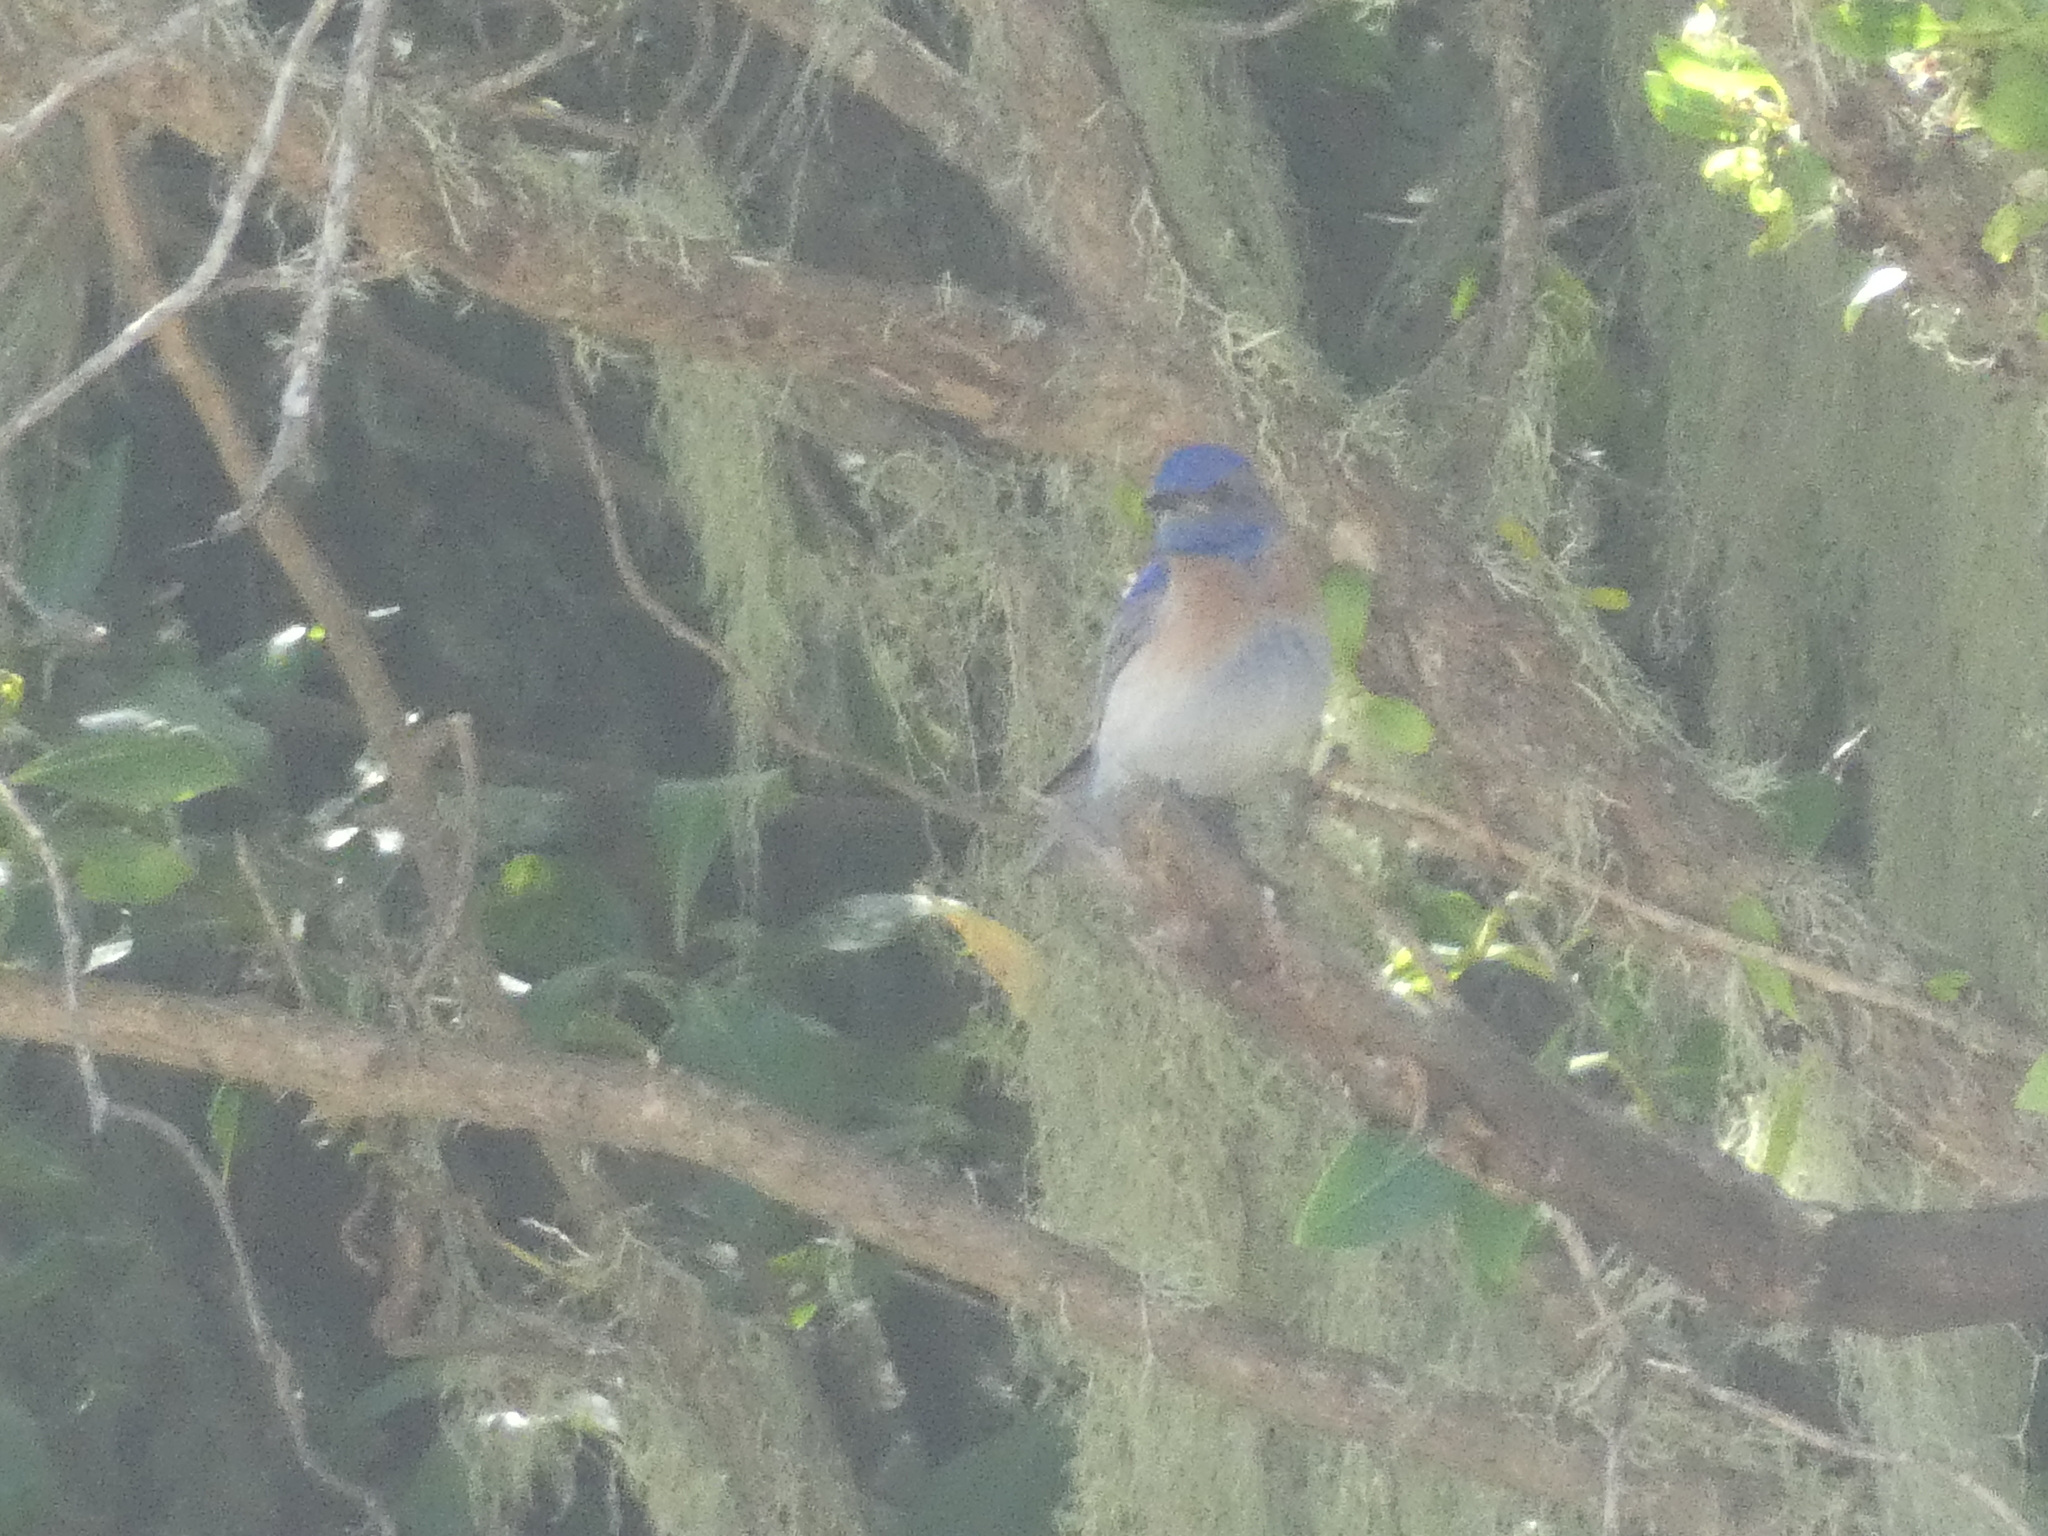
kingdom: Animalia
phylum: Chordata
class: Aves
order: Passeriformes
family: Turdidae
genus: Sialia
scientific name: Sialia mexicana
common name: Western bluebird
